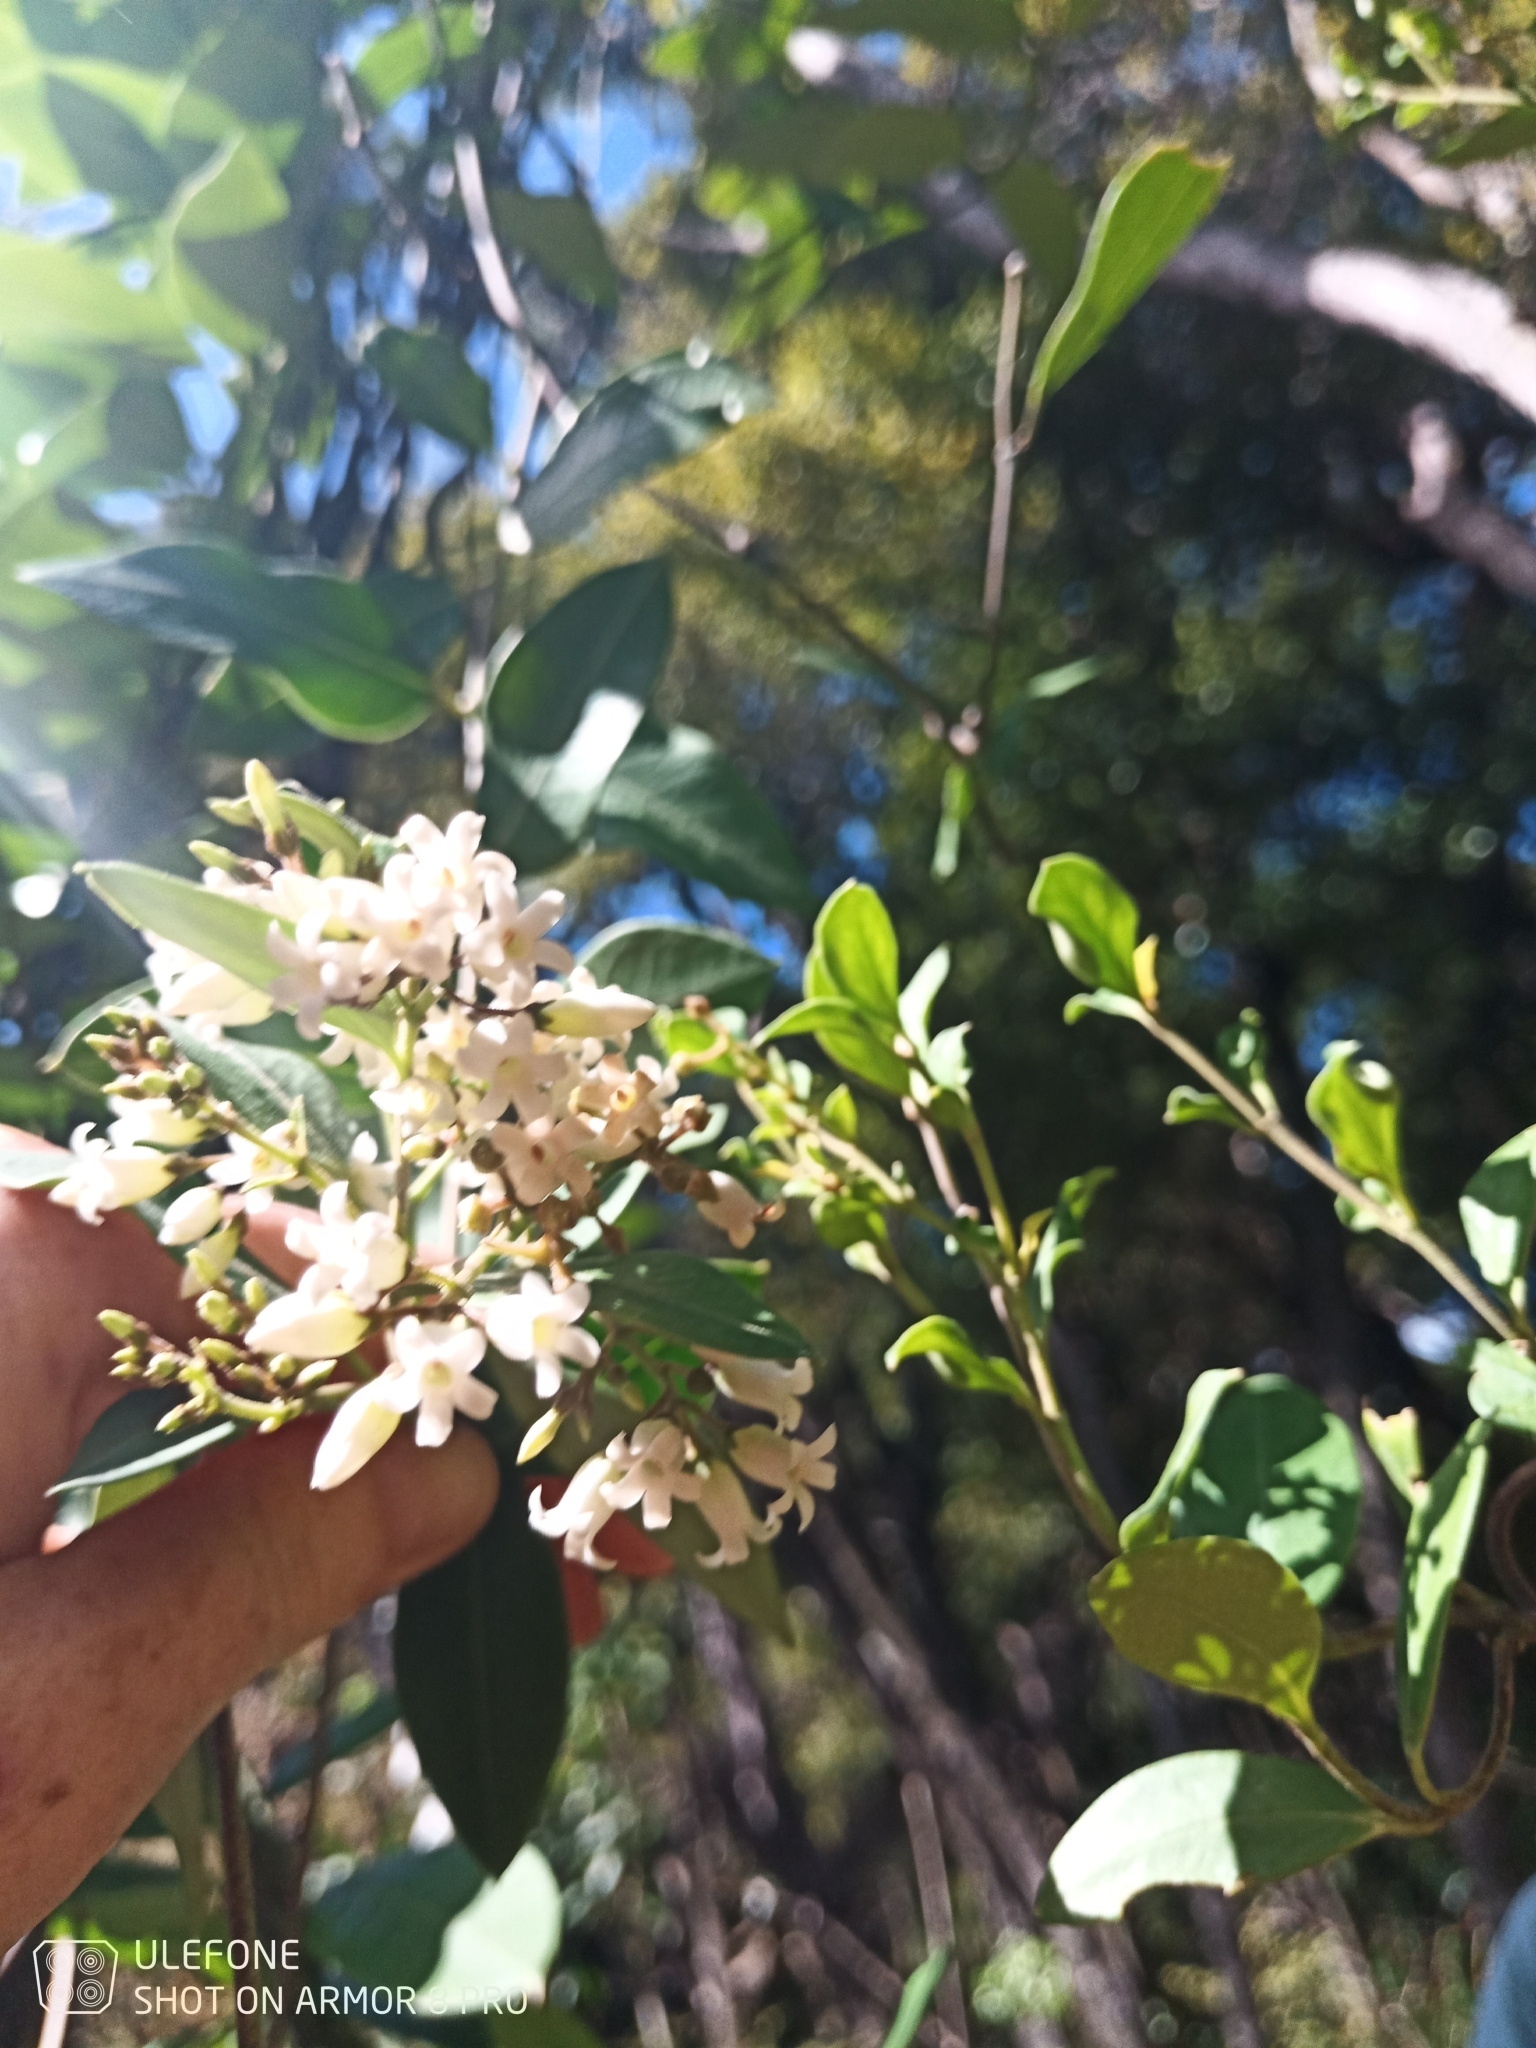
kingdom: Plantae
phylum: Tracheophyta
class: Magnoliopsida
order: Gentianales
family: Apocynaceae
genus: Parsonsia
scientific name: Parsonsia heterophylla
